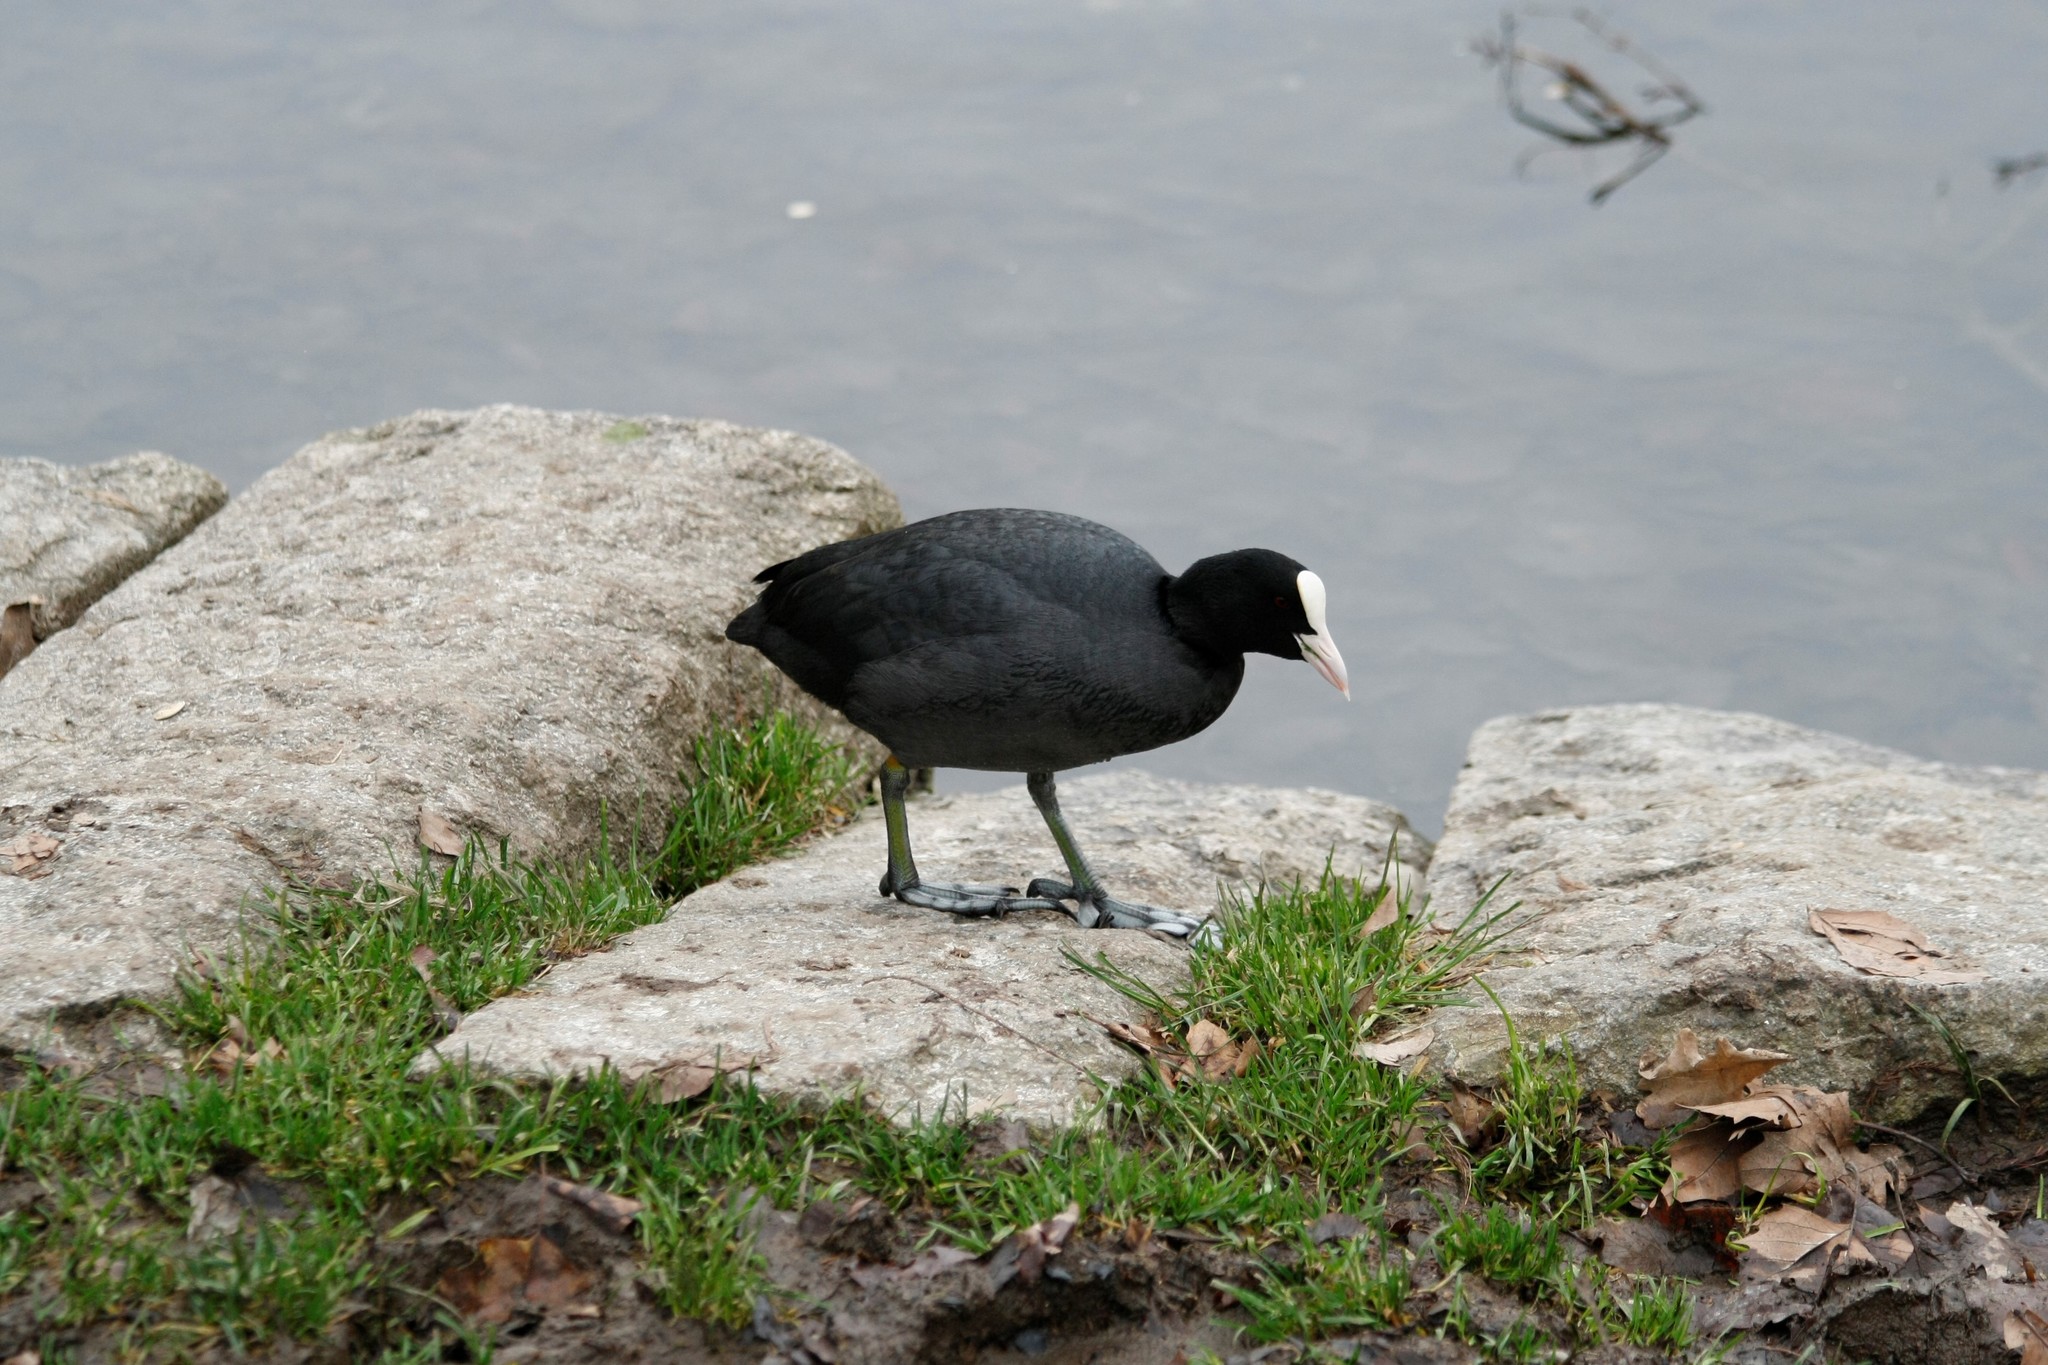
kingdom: Animalia
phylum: Chordata
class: Aves
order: Gruiformes
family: Rallidae
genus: Fulica
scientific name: Fulica atra
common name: Eurasian coot
